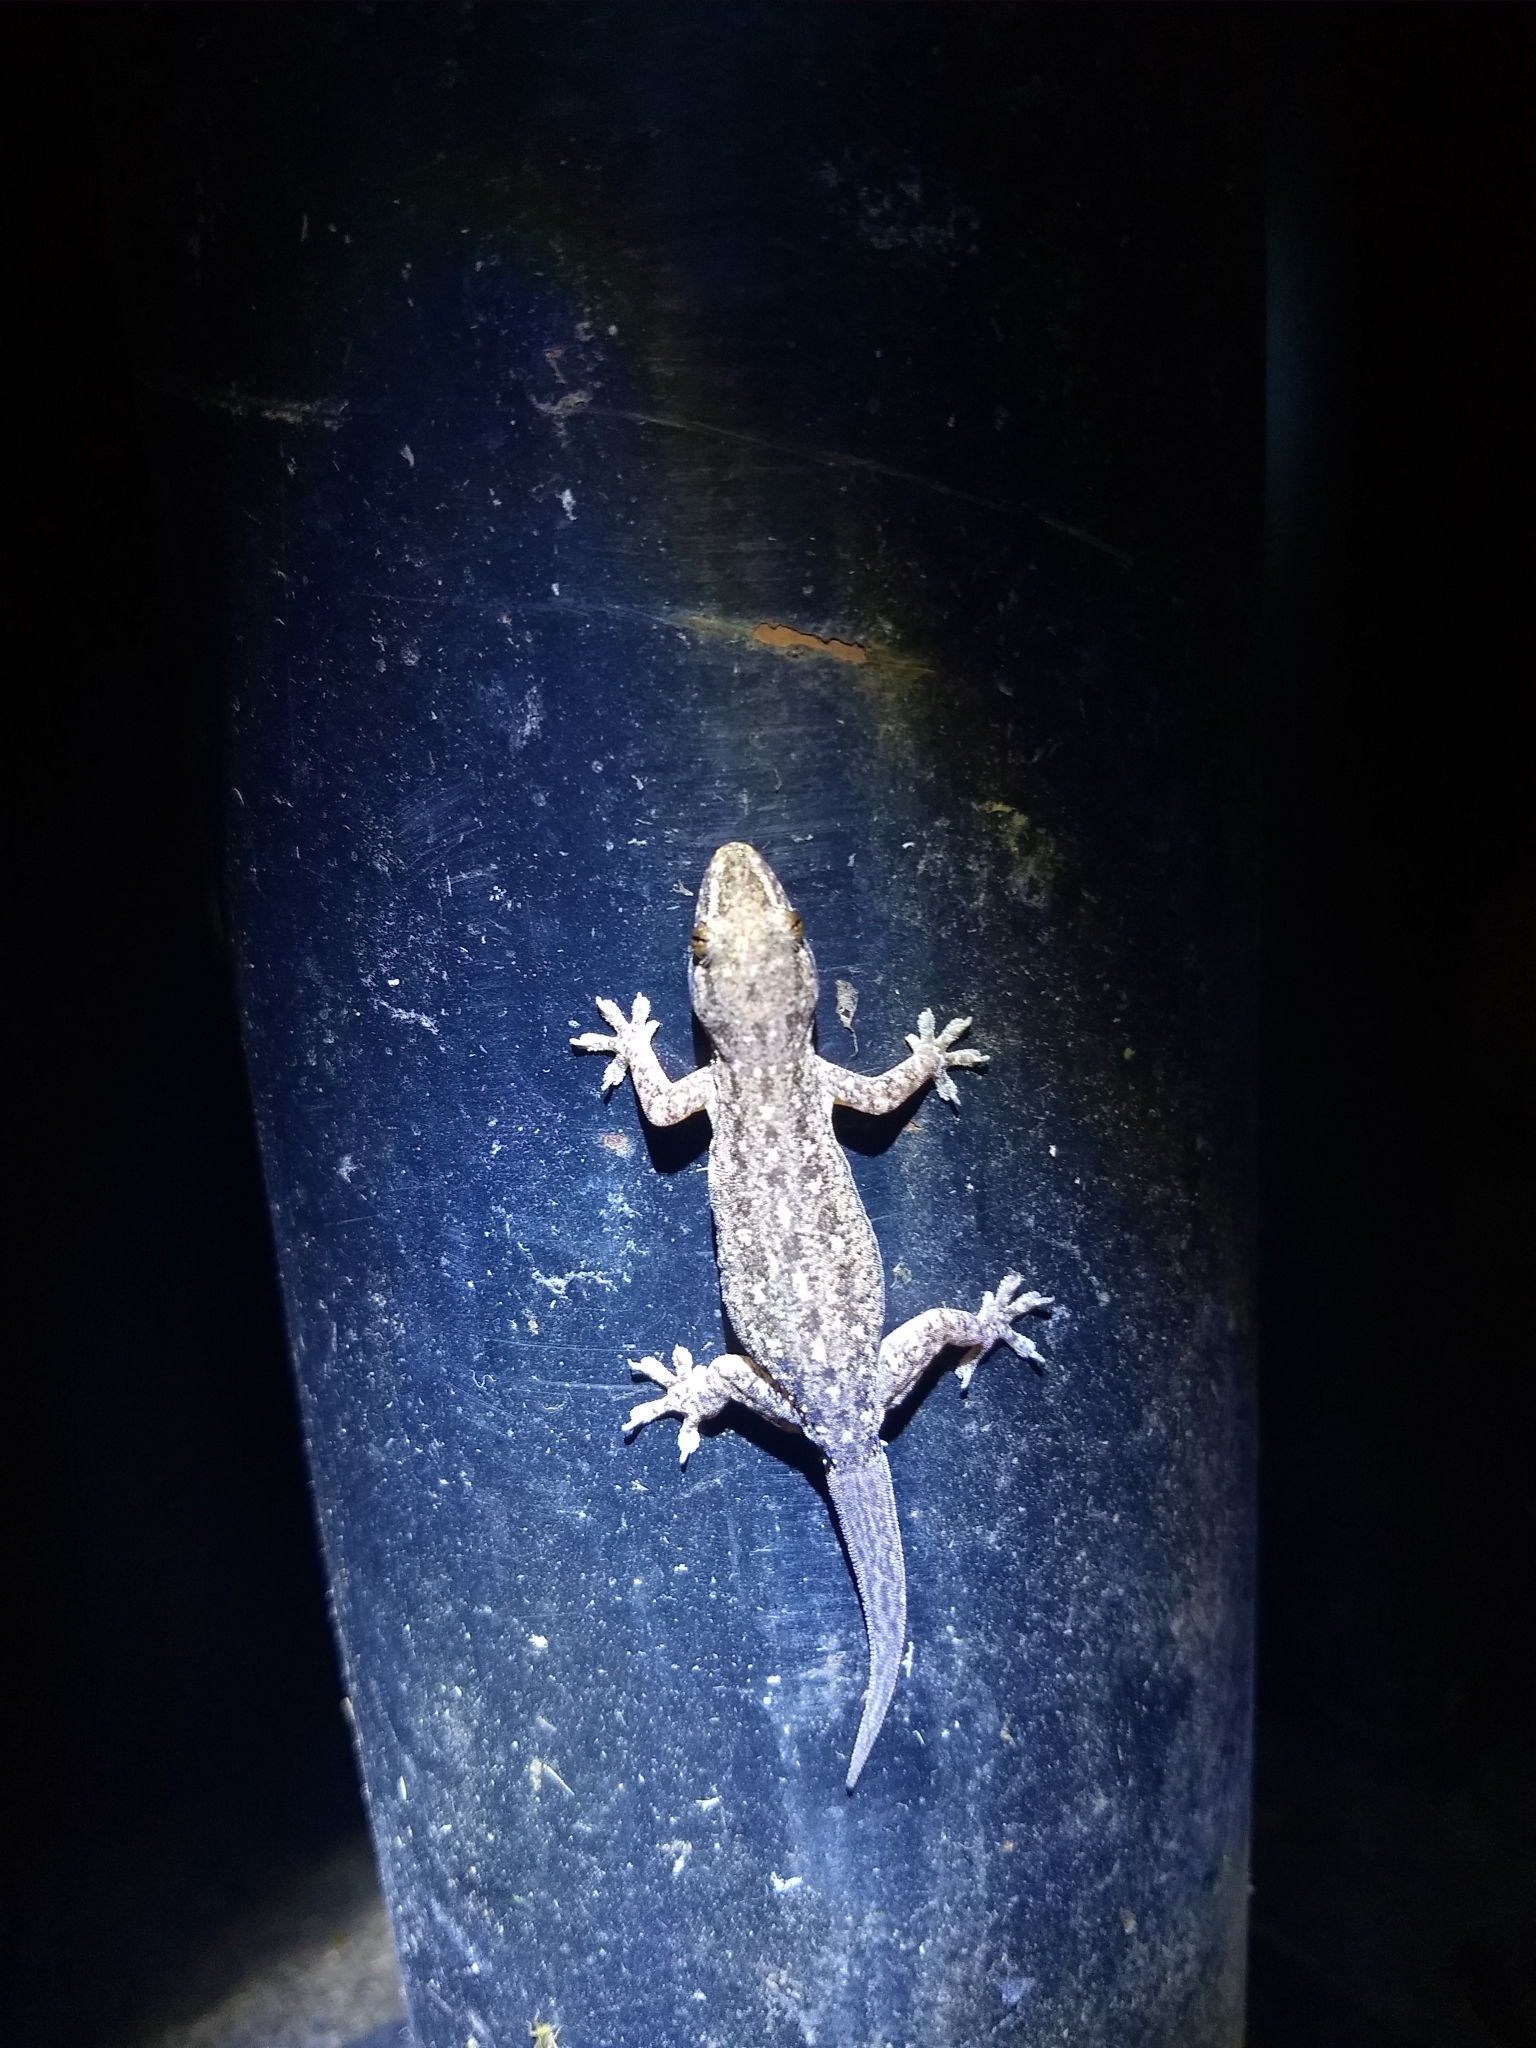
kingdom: Animalia
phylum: Chordata
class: Squamata
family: Gekkonidae
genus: Hemidactylus
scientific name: Hemidactylus frenatus
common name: Common house gecko
